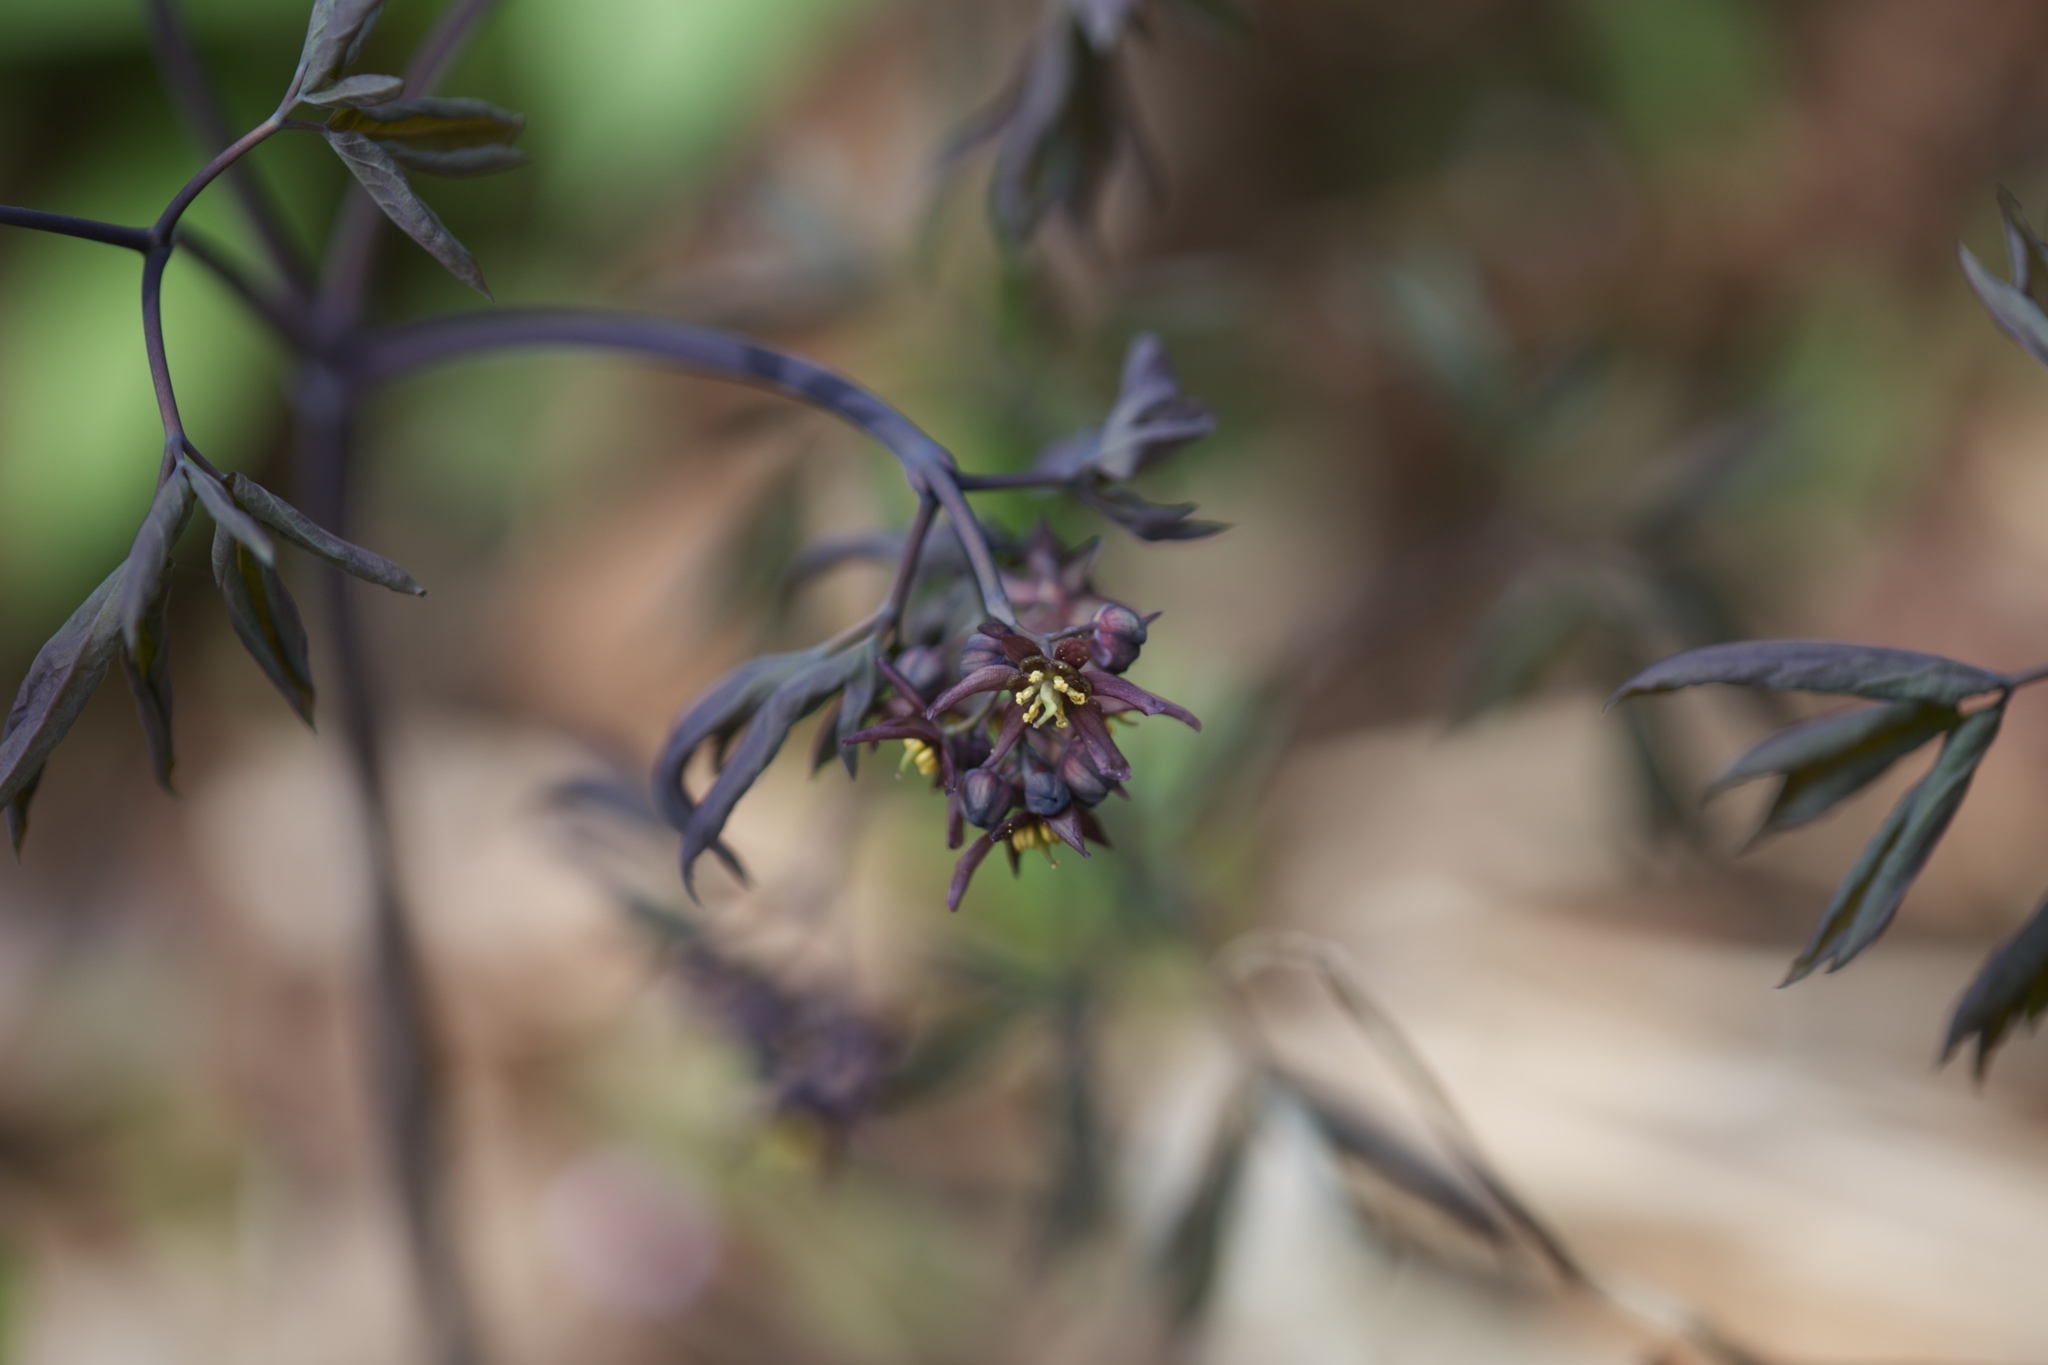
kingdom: Plantae
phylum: Tracheophyta
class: Magnoliopsida
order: Ranunculales
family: Berberidaceae
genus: Caulophyllum
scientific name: Caulophyllum giganteum
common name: Blue cohosh
